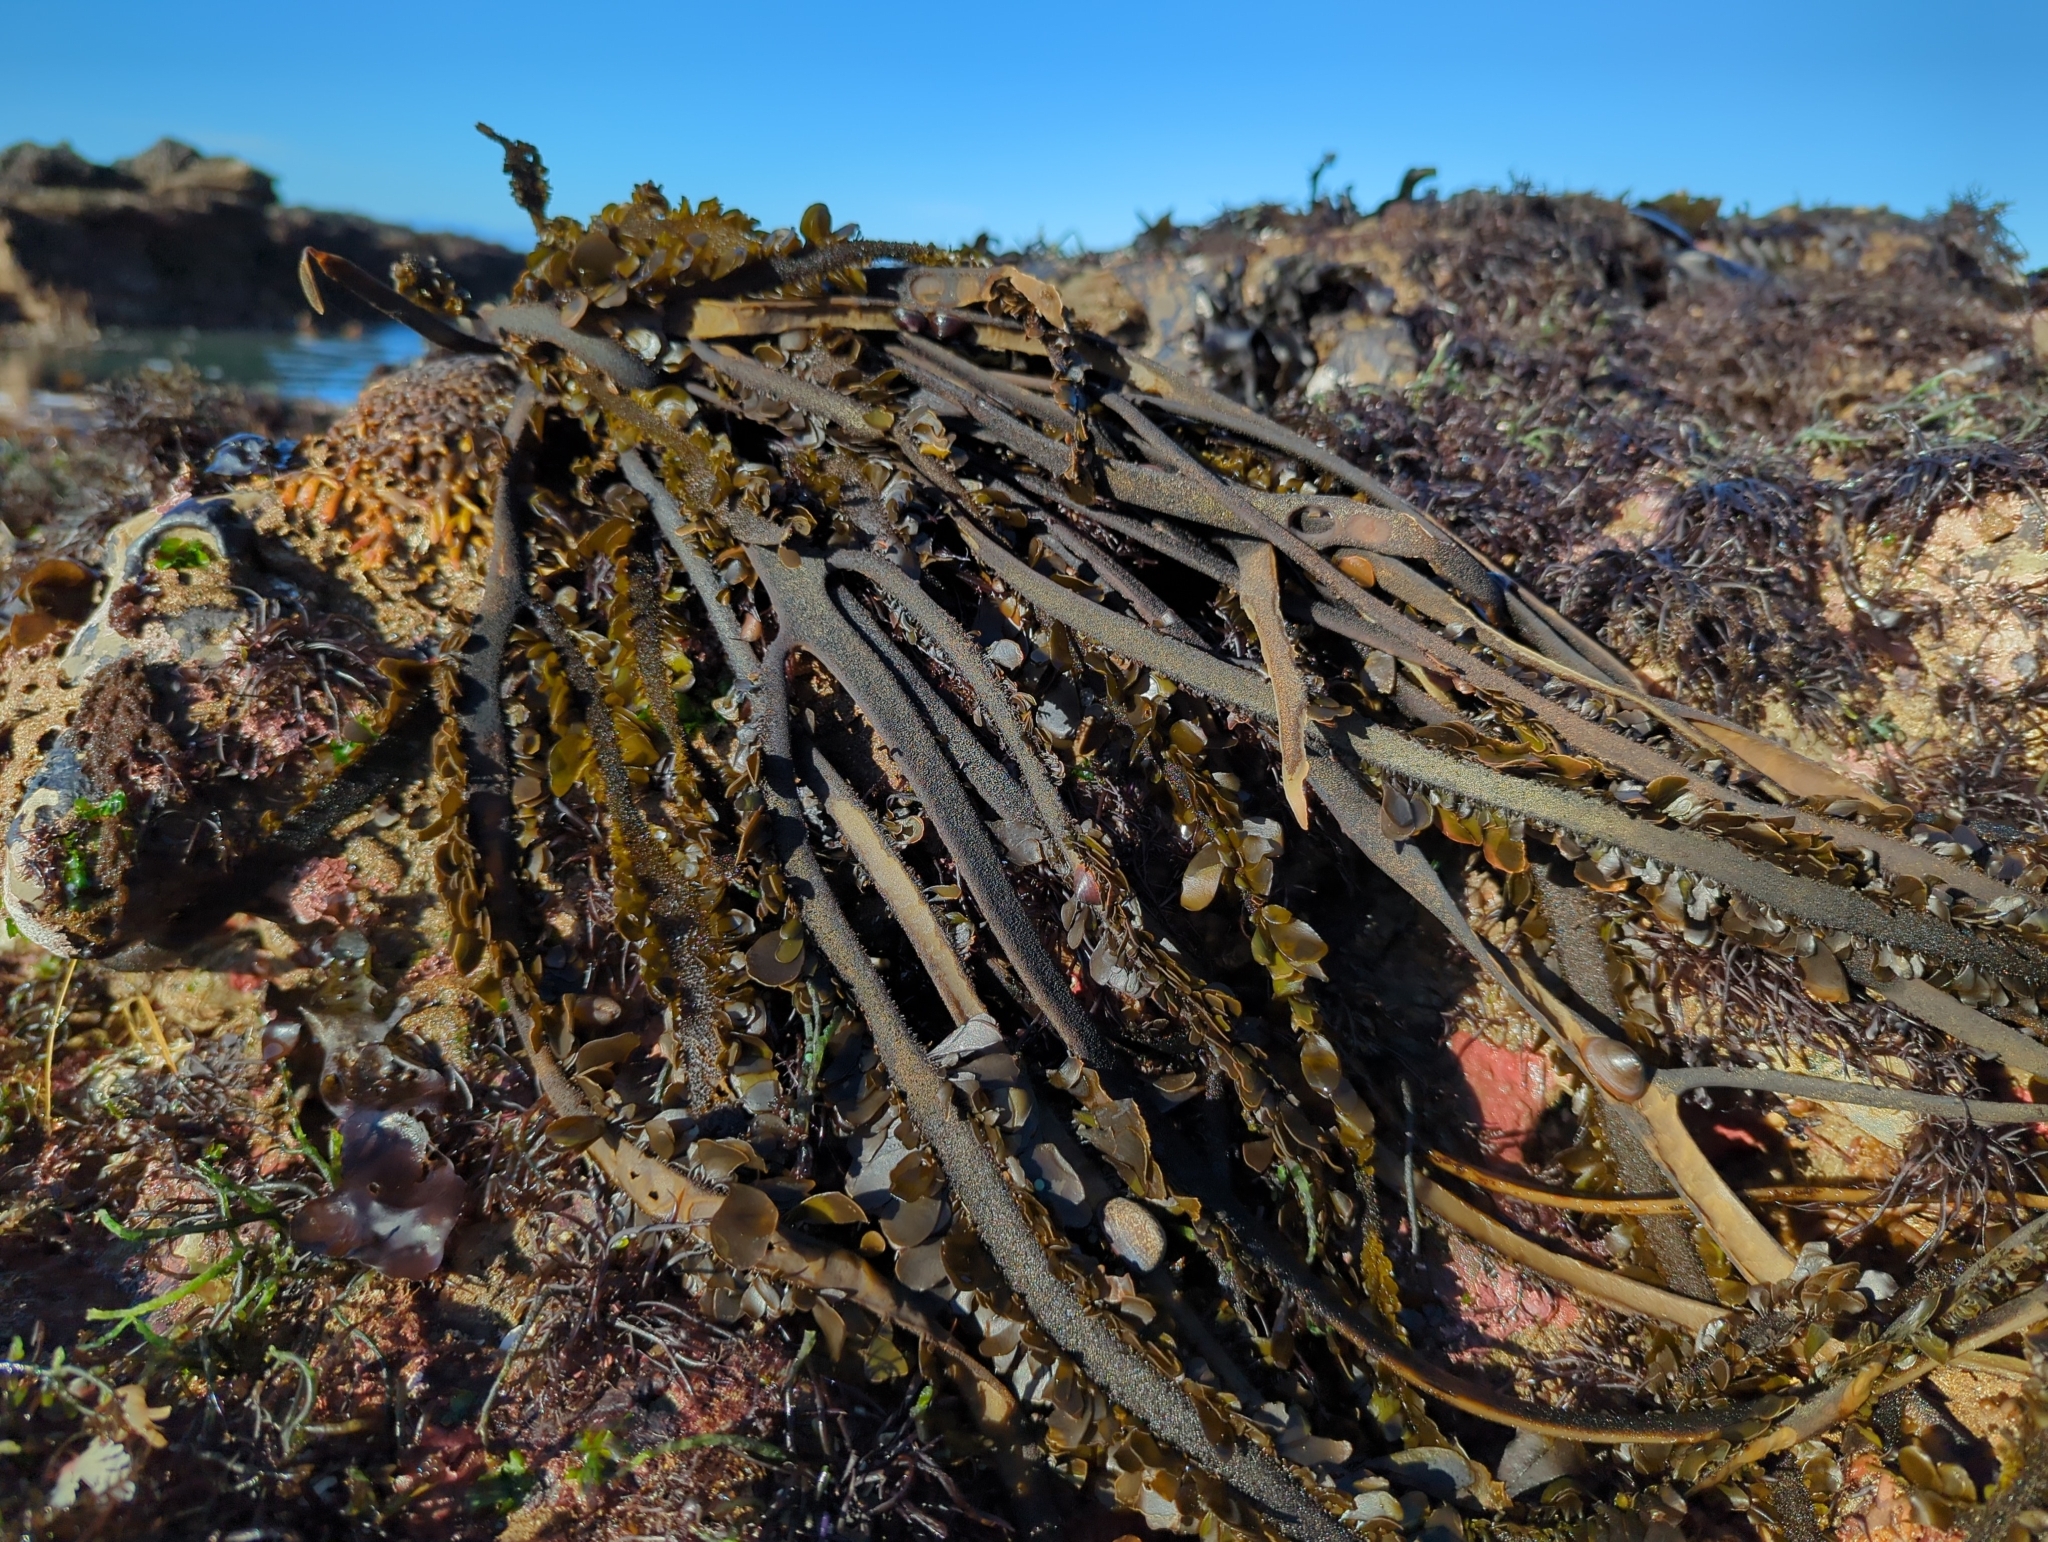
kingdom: Chromista
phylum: Ochrophyta
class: Phaeophyceae
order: Laminariales
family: Lessoniaceae
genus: Egregia
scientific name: Egregia menziesii
